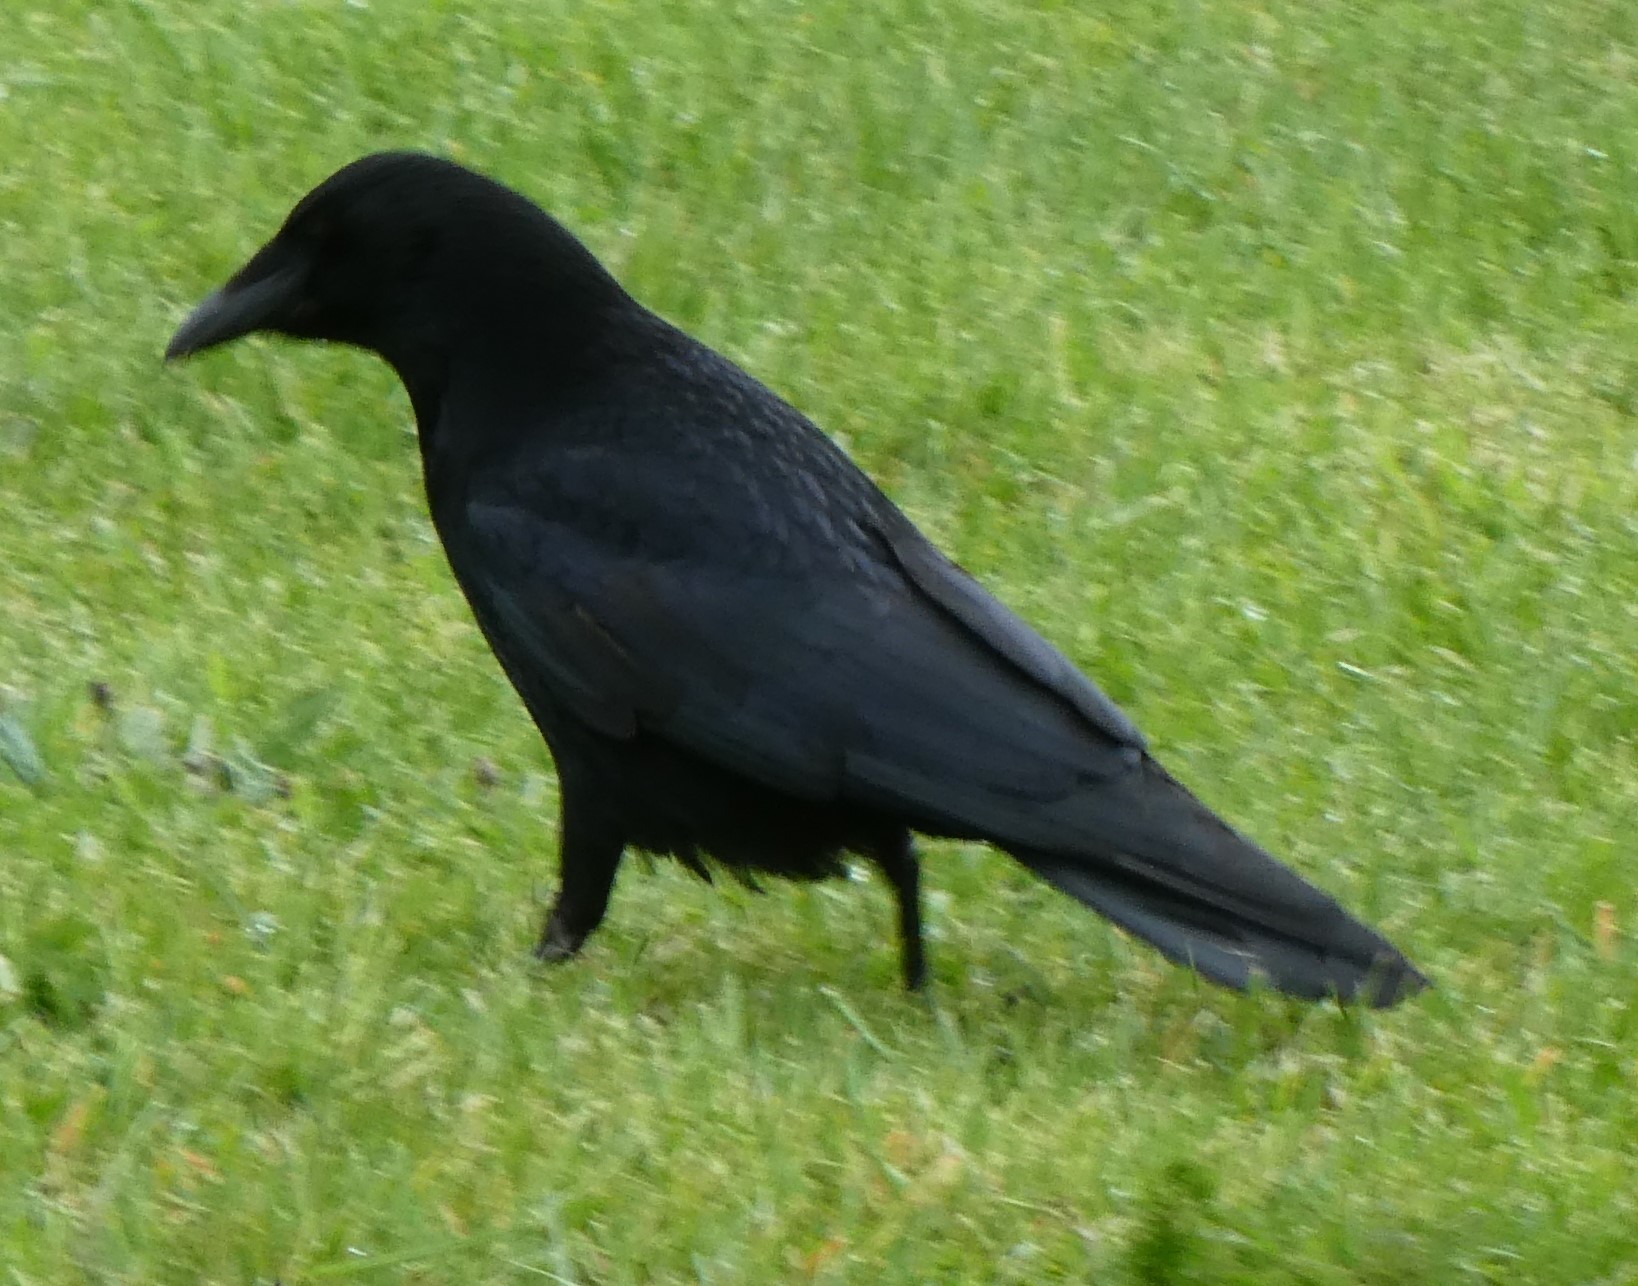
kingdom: Animalia
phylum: Chordata
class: Aves
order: Passeriformes
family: Corvidae
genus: Corvus
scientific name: Corvus corone
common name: Carrion crow
